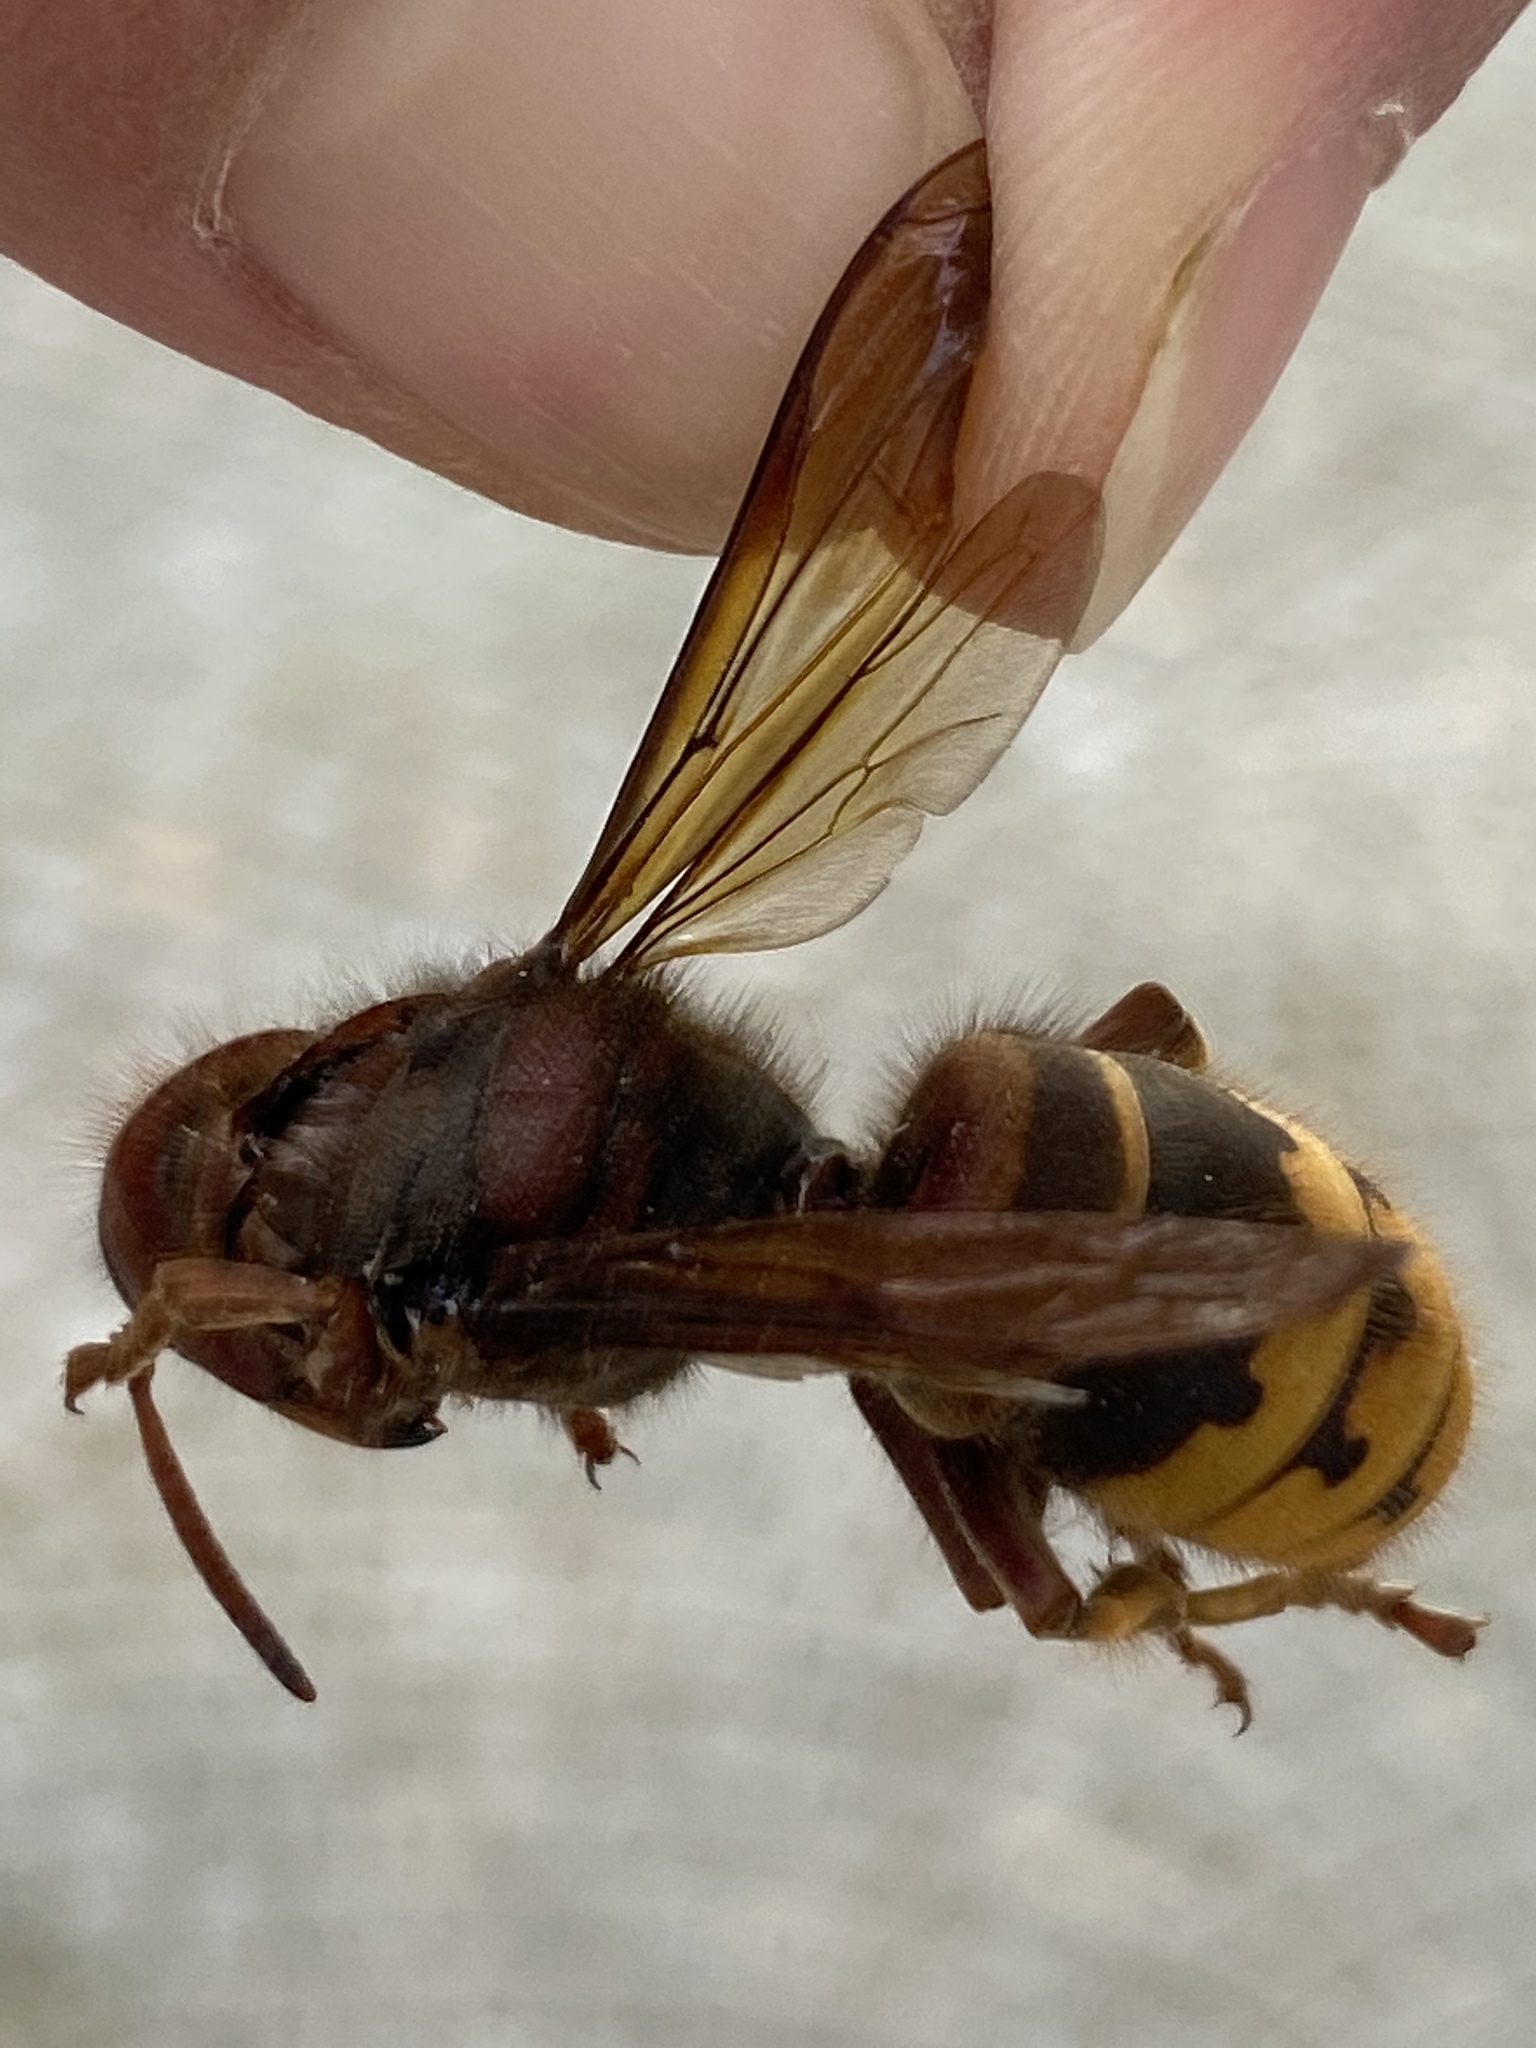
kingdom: Animalia
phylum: Arthropoda
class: Insecta
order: Hymenoptera
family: Vespidae
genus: Vespa
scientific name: Vespa crabro
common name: Hornet
